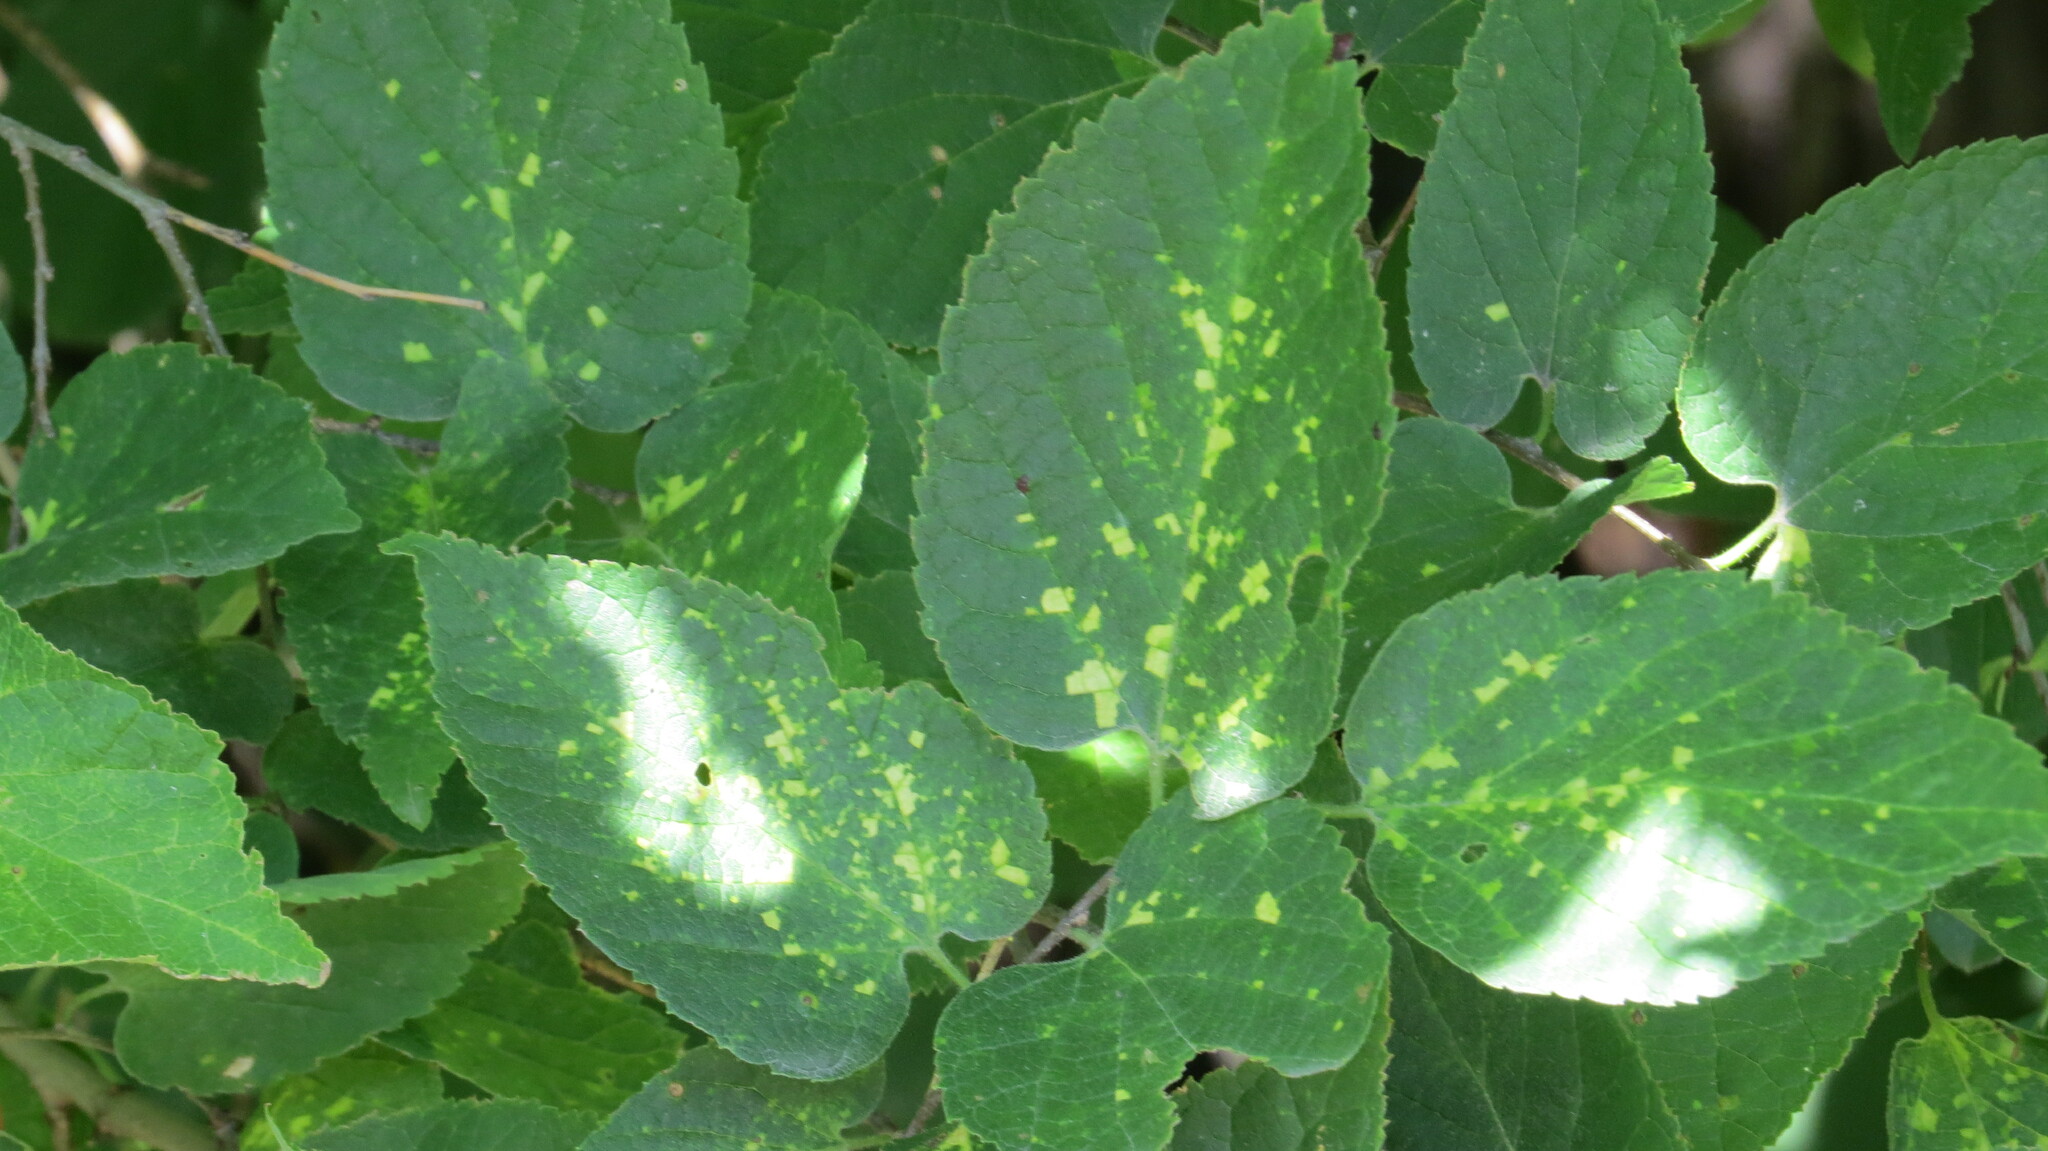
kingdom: Plantae
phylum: Tracheophyta
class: Magnoliopsida
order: Rosales
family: Cannabaceae
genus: Celtis
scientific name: Celtis occidentalis
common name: Common hackberry
